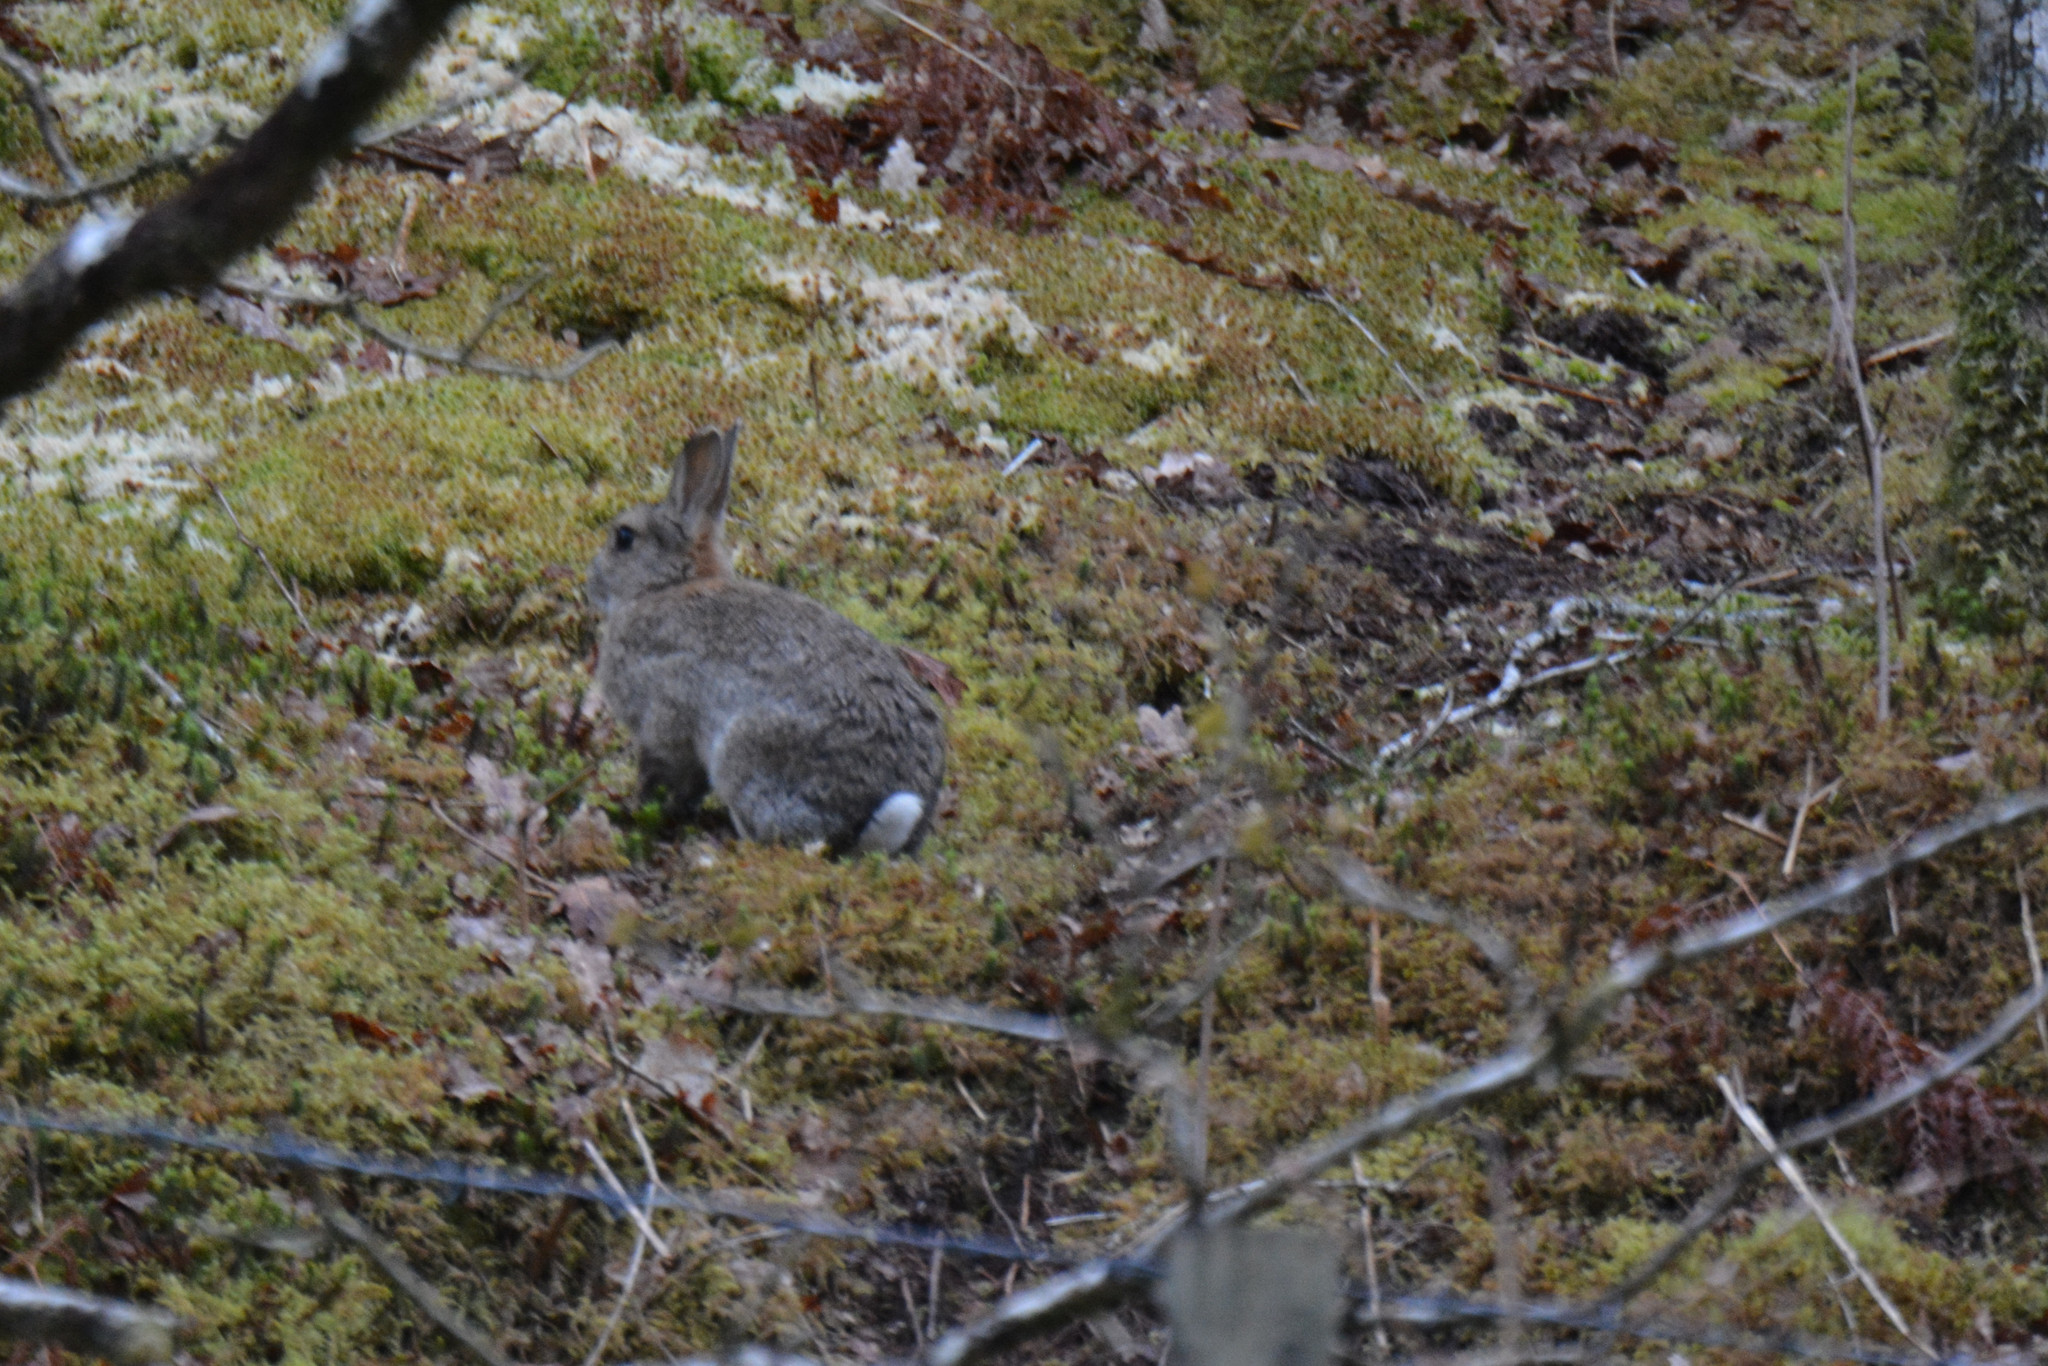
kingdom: Animalia
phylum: Chordata
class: Mammalia
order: Lagomorpha
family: Leporidae
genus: Oryctolagus
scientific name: Oryctolagus cuniculus
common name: European rabbit
